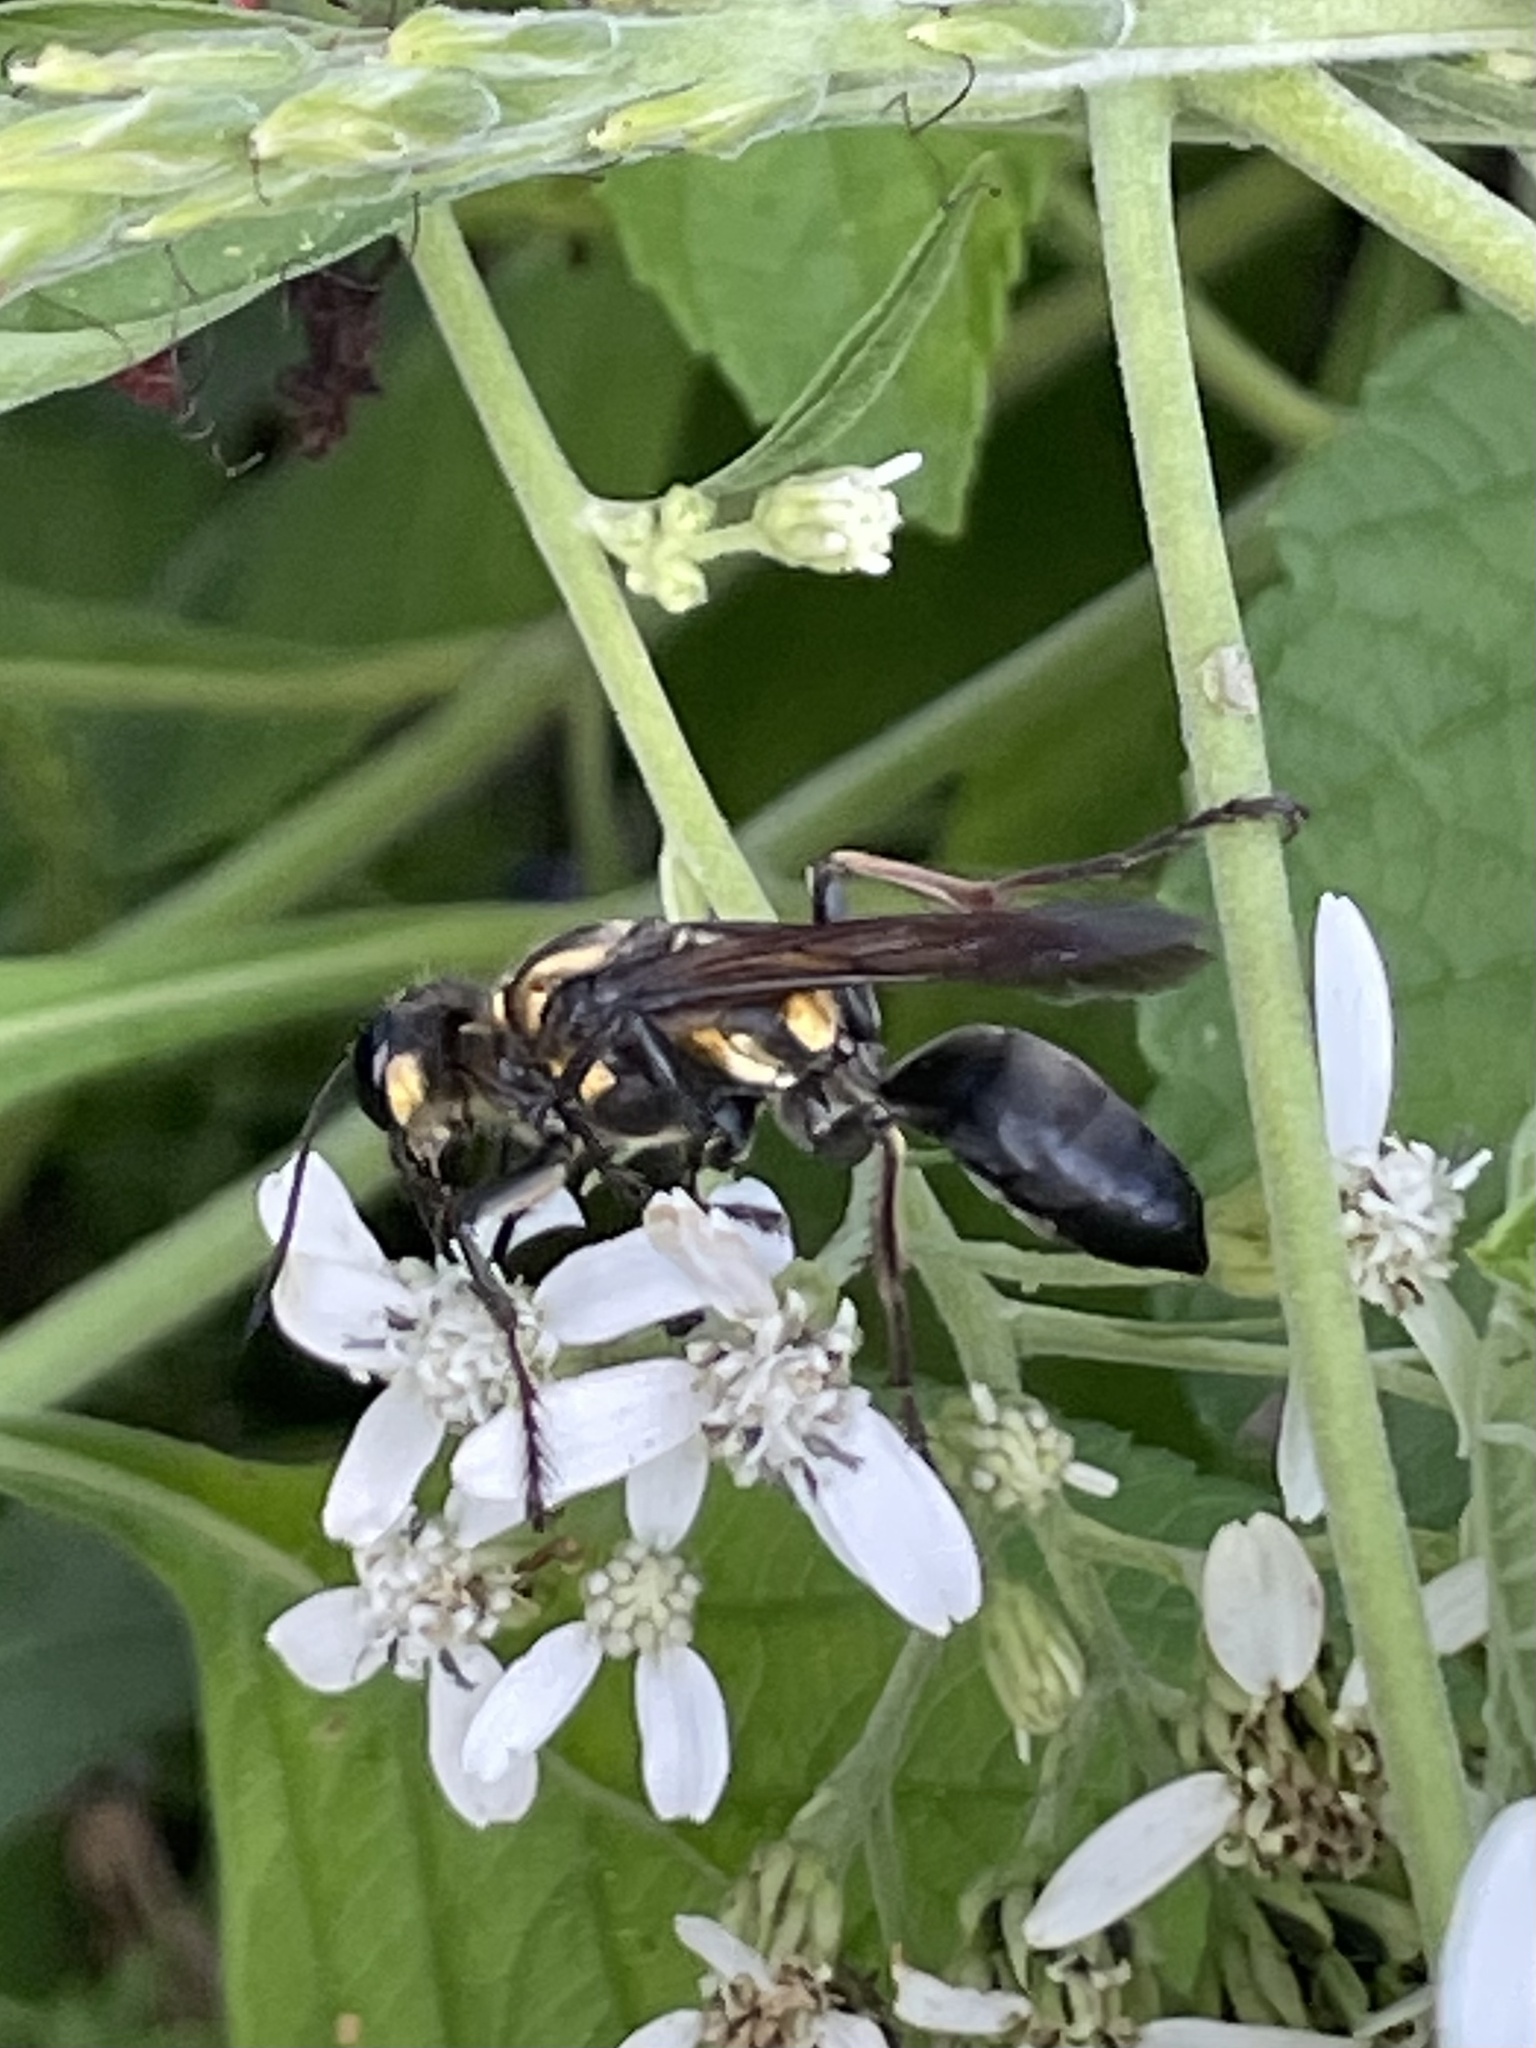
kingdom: Animalia
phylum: Arthropoda
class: Insecta
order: Hymenoptera
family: Sphecidae
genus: Sphex
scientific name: Sphex habenus
